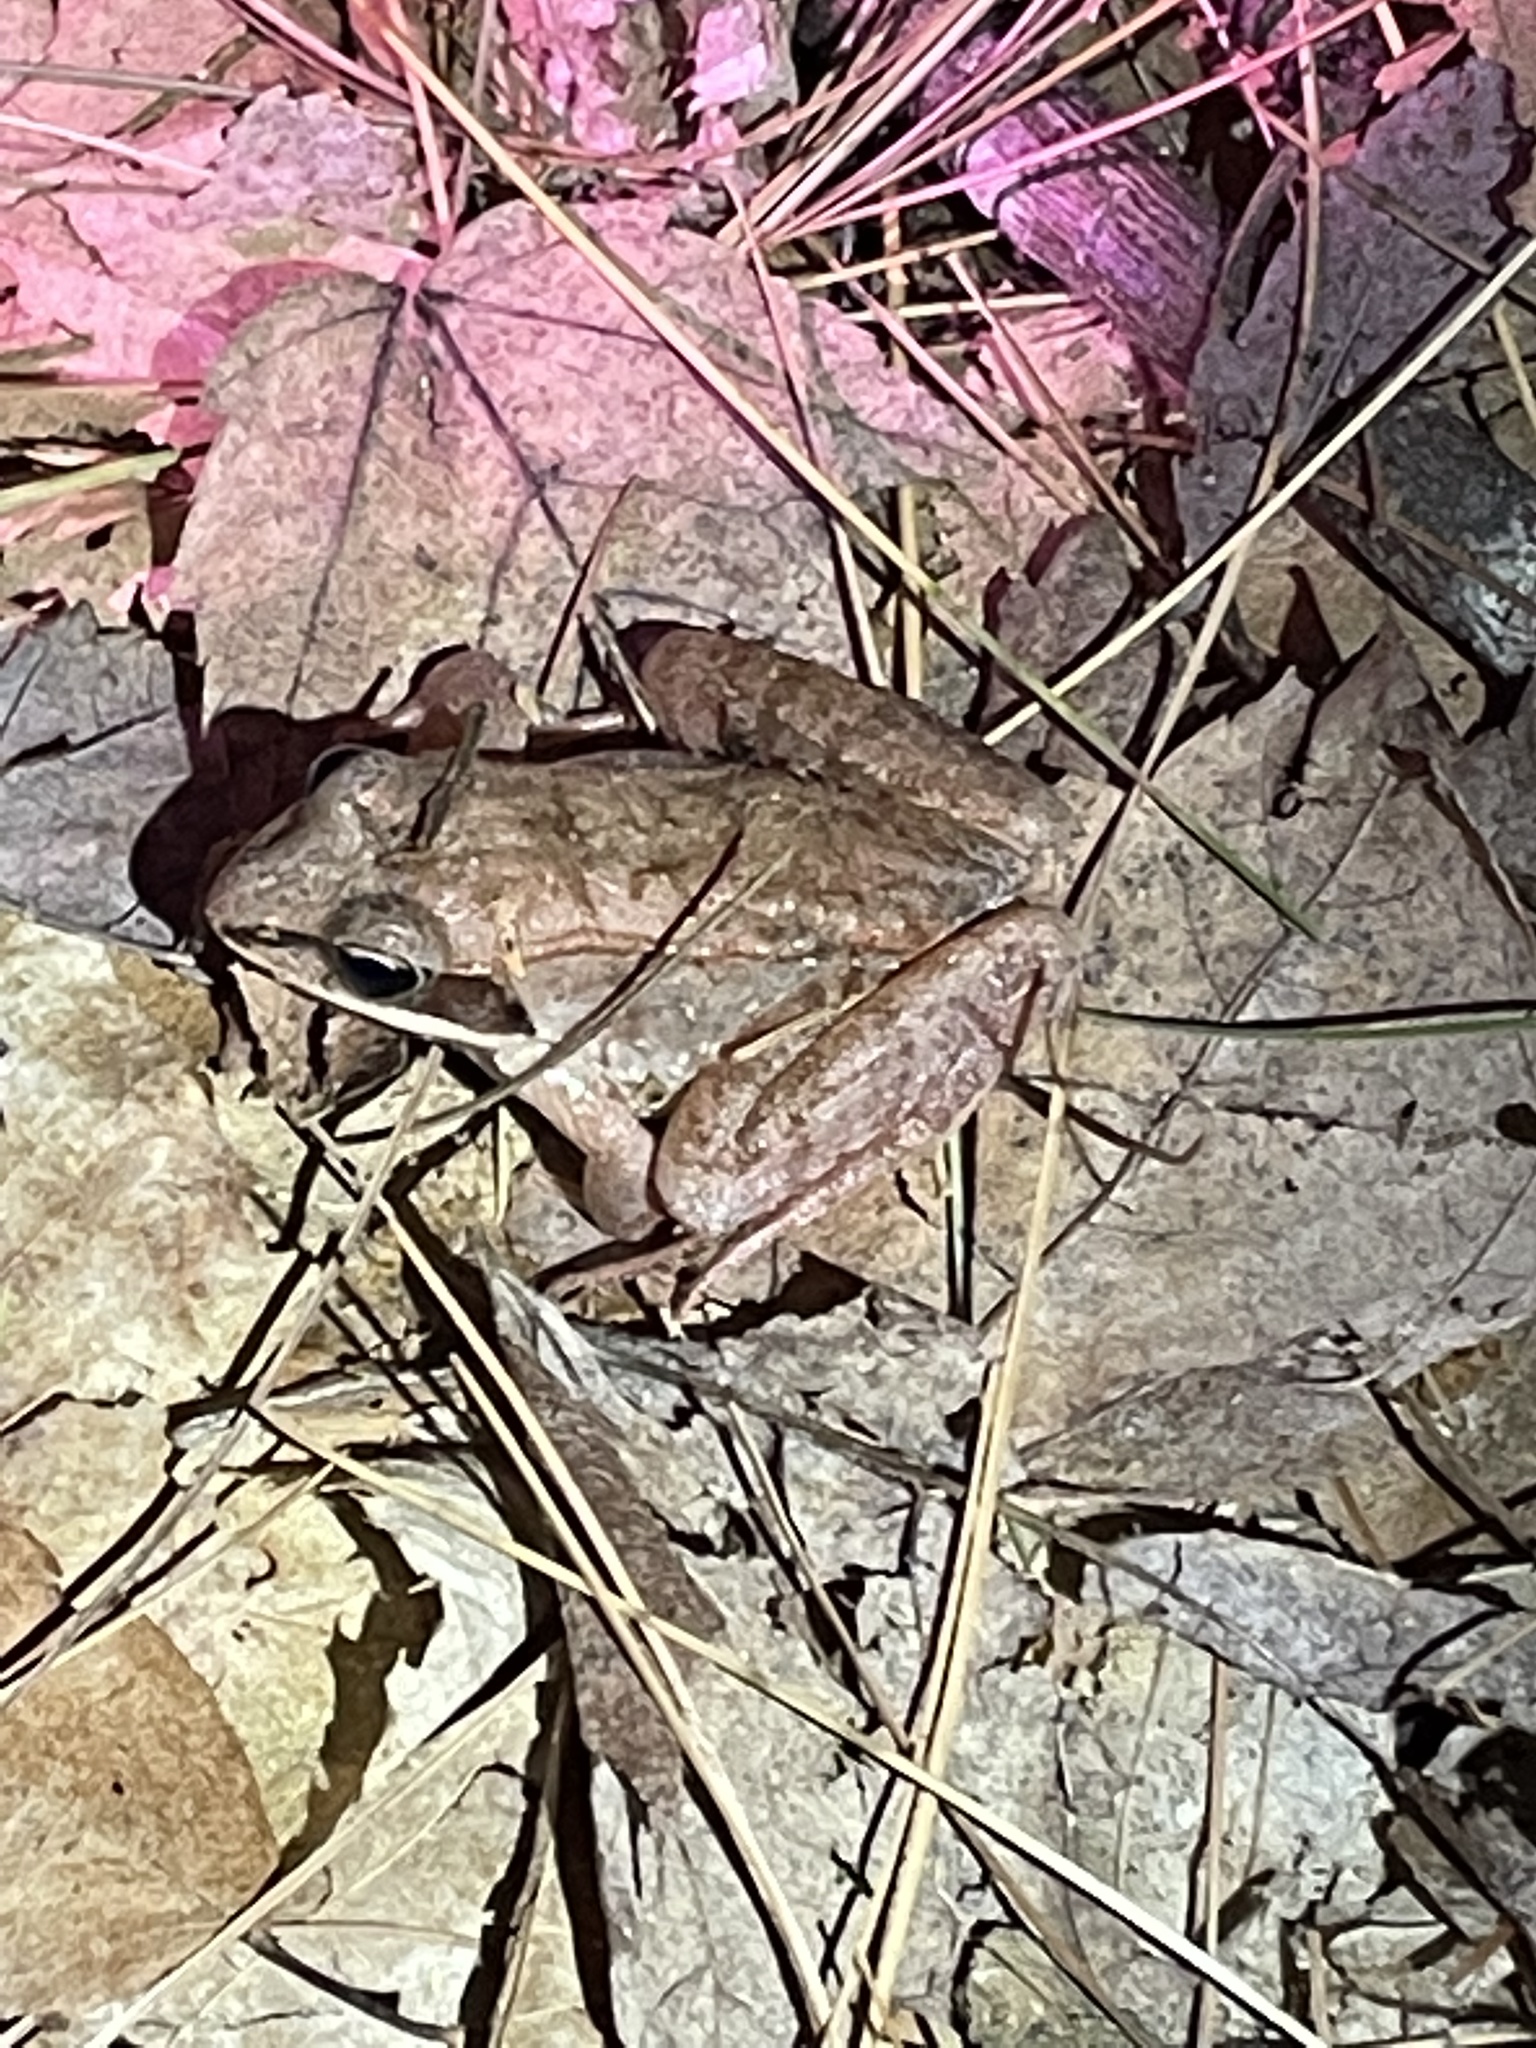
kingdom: Animalia
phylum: Chordata
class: Amphibia
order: Anura
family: Ranidae
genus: Lithobates
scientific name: Lithobates sylvaticus
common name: Wood frog
